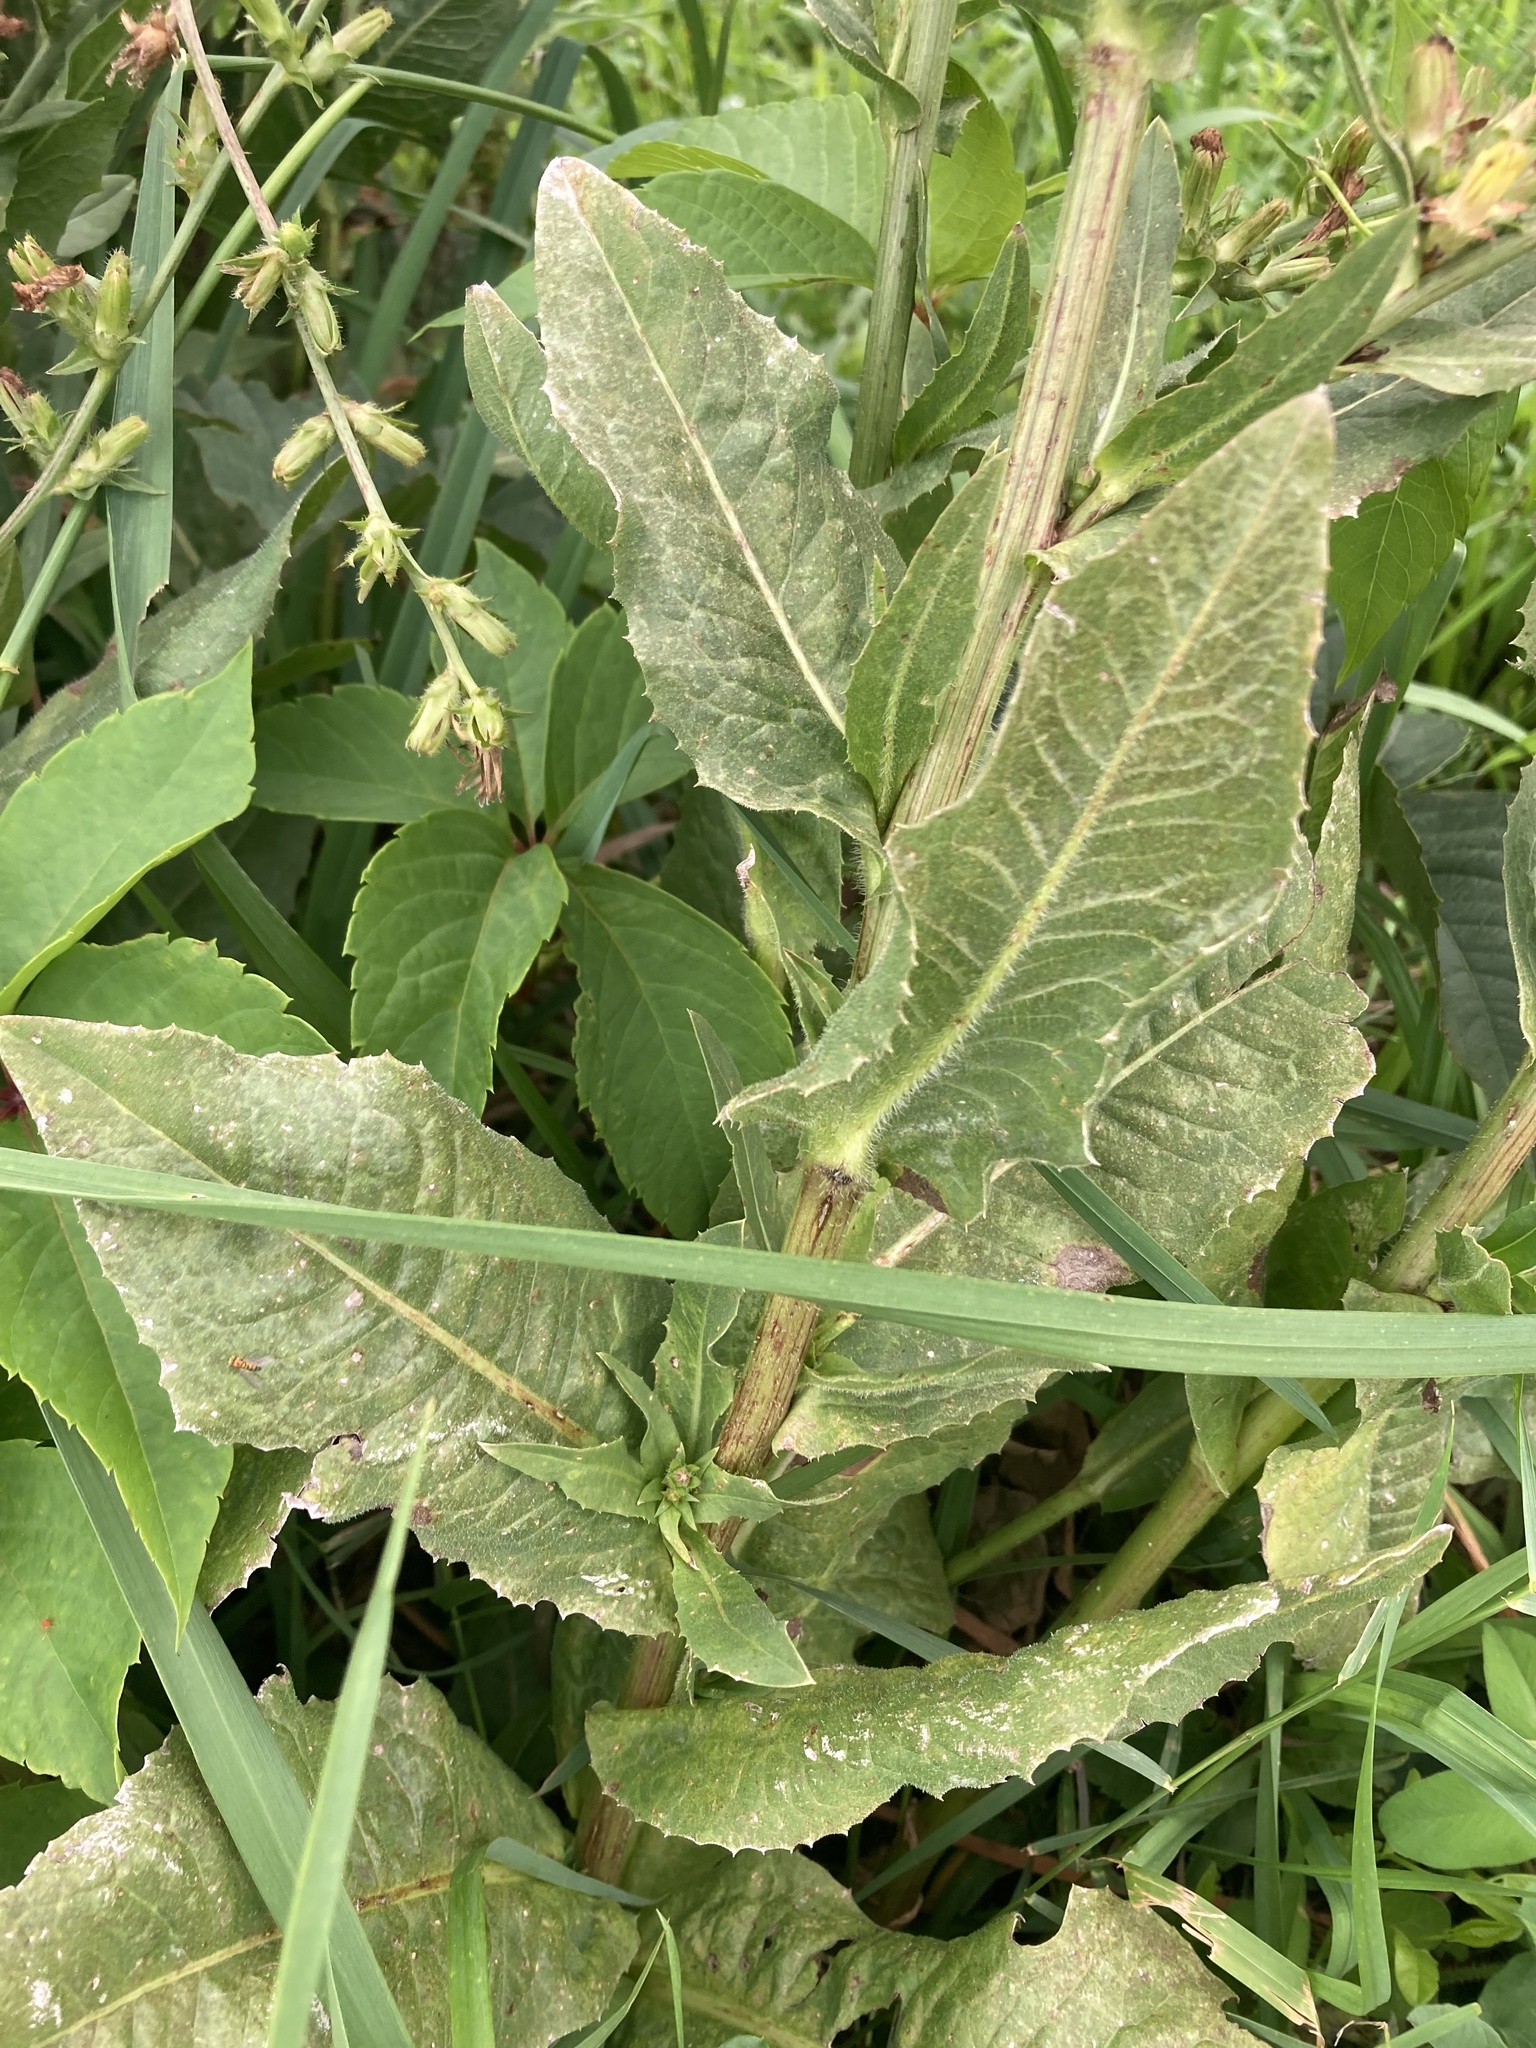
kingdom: Plantae
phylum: Tracheophyta
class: Magnoliopsida
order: Asterales
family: Asteraceae
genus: Cichorium
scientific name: Cichorium intybus
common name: Chicory
